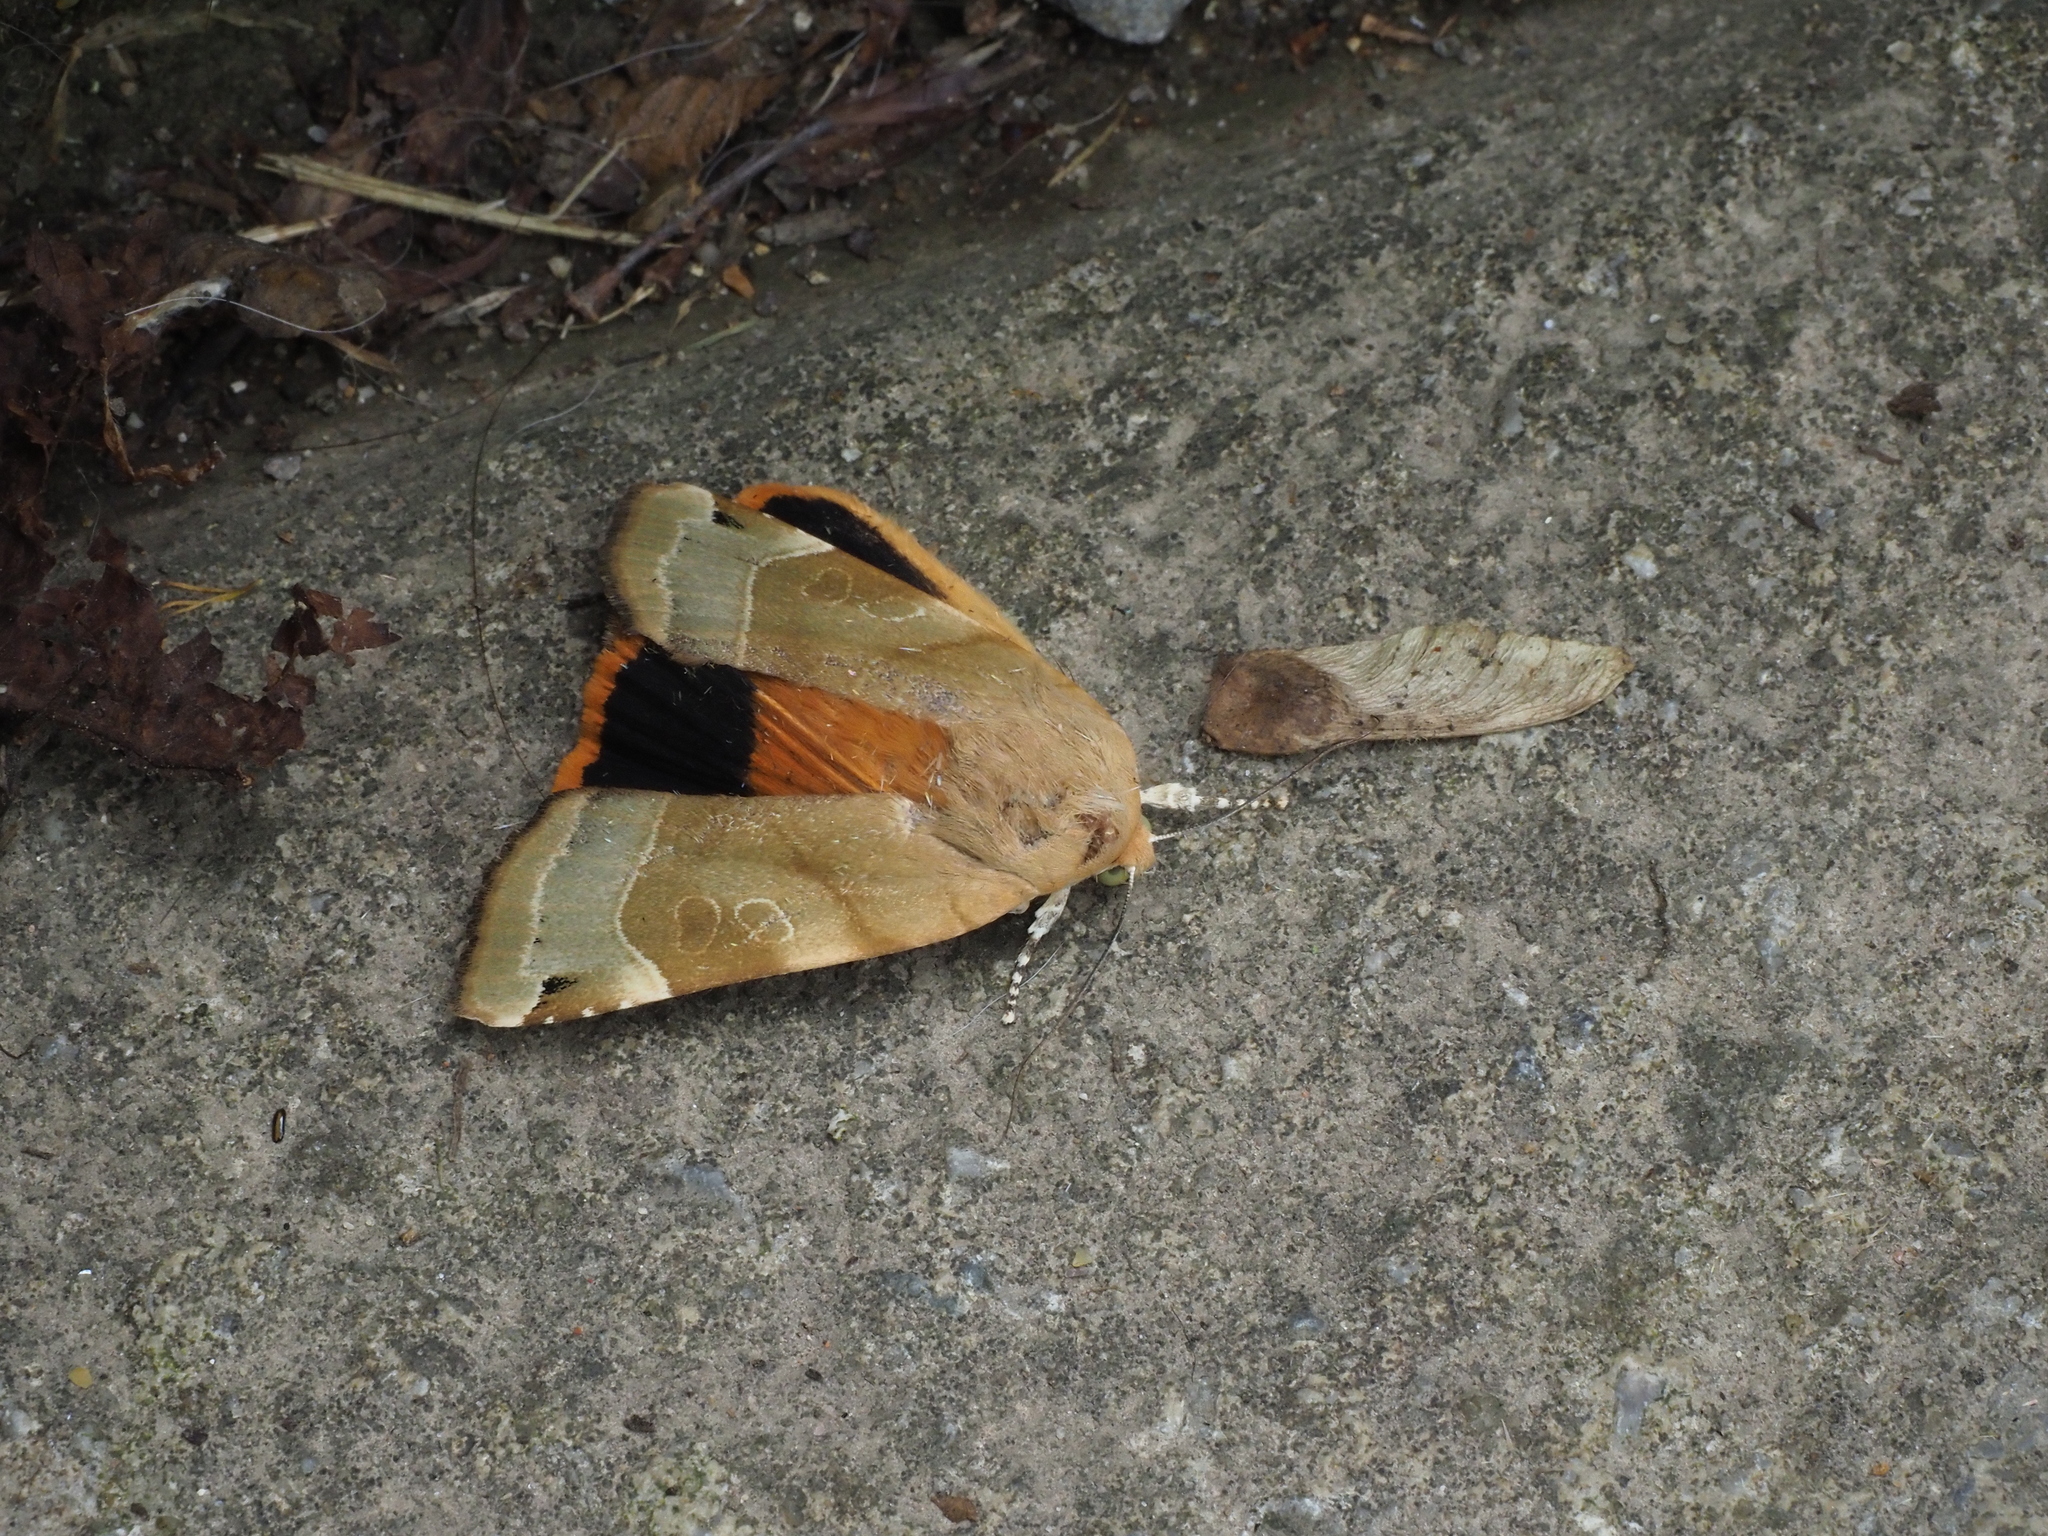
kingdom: Animalia
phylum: Arthropoda
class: Insecta
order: Lepidoptera
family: Noctuidae
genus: Noctua
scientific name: Noctua fimbriata
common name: Broad-bordered yellow underwing
